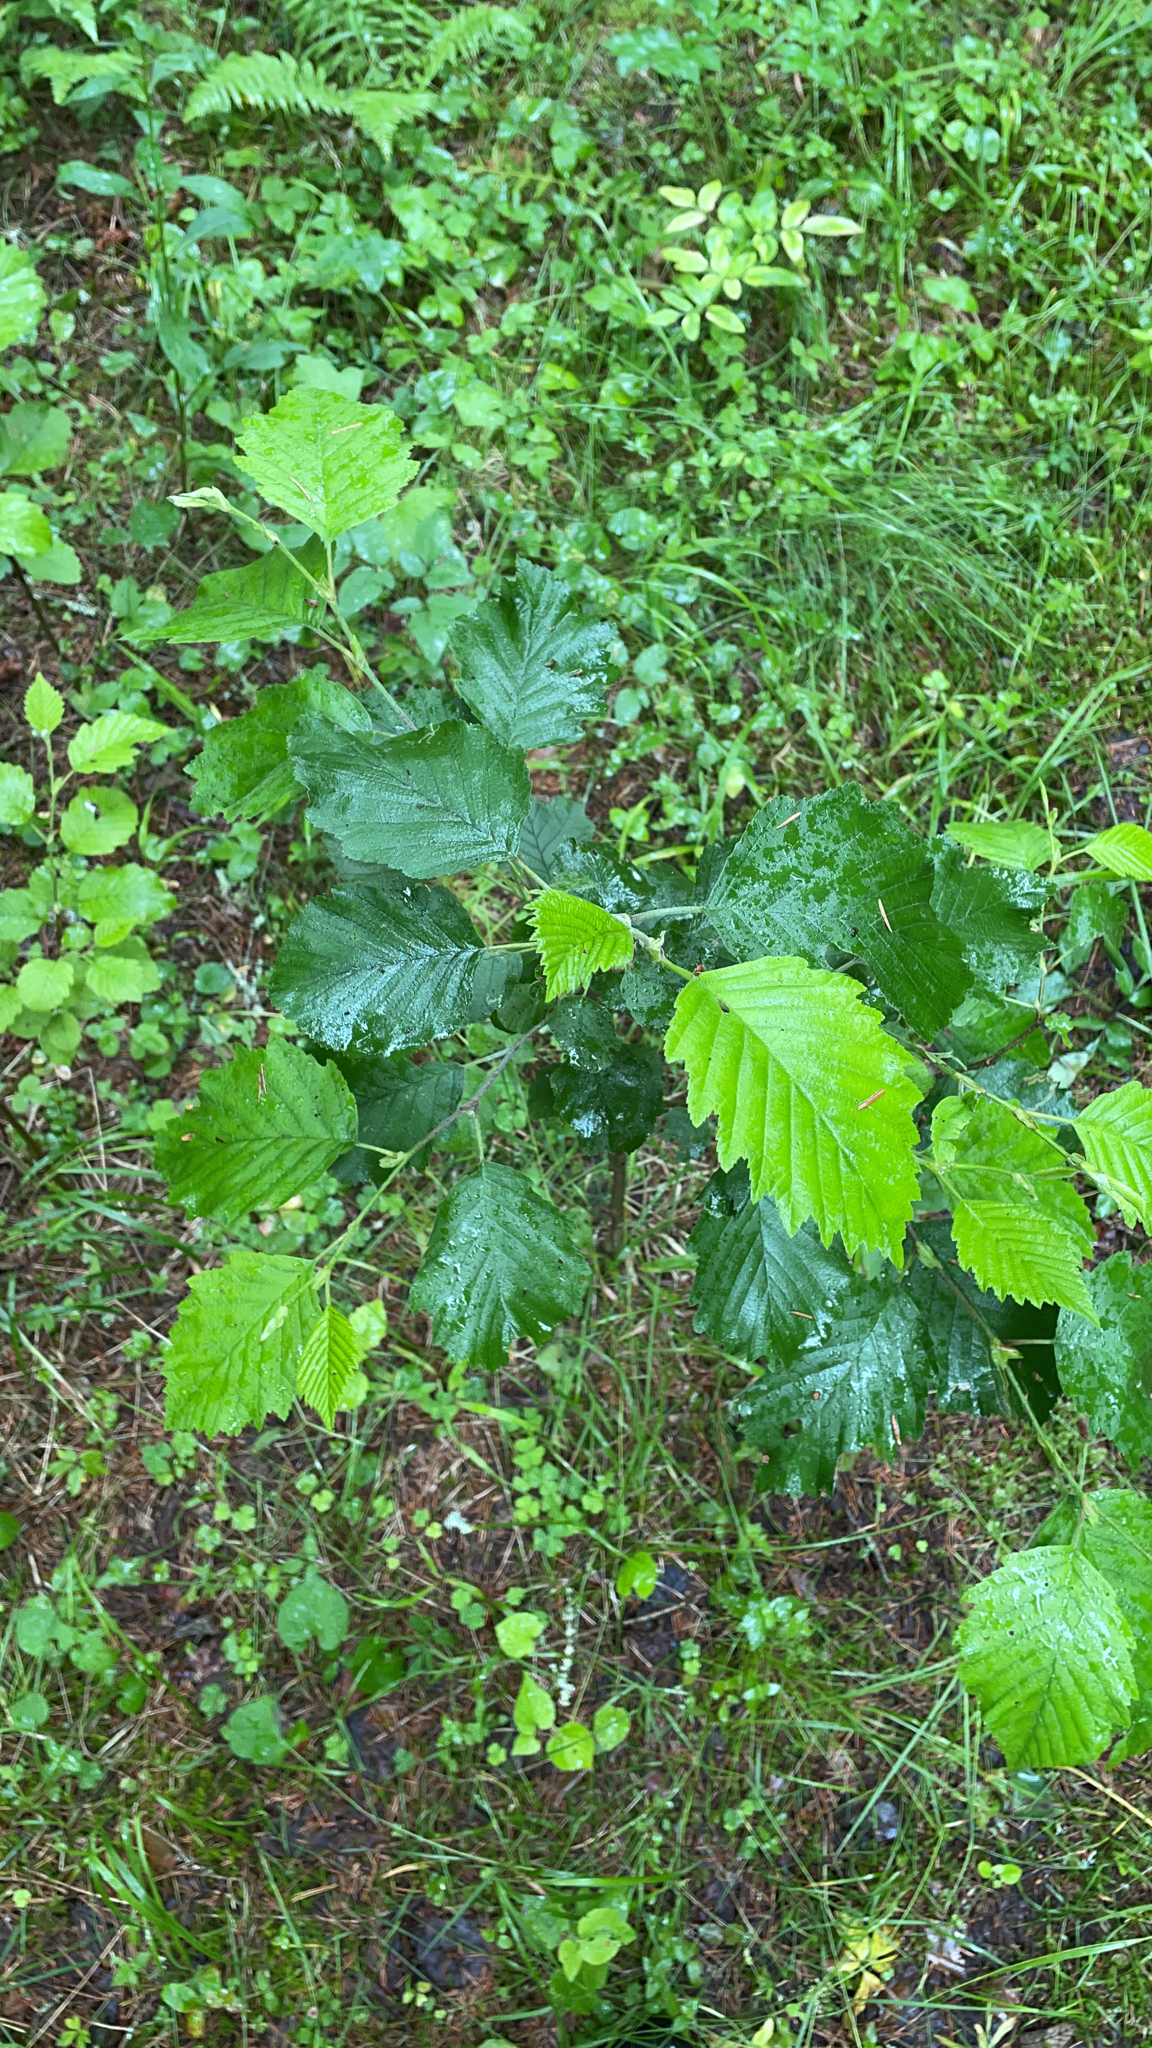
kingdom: Plantae
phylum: Tracheophyta
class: Magnoliopsida
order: Fagales
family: Betulaceae
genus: Alnus
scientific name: Alnus incana
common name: Grey alder
